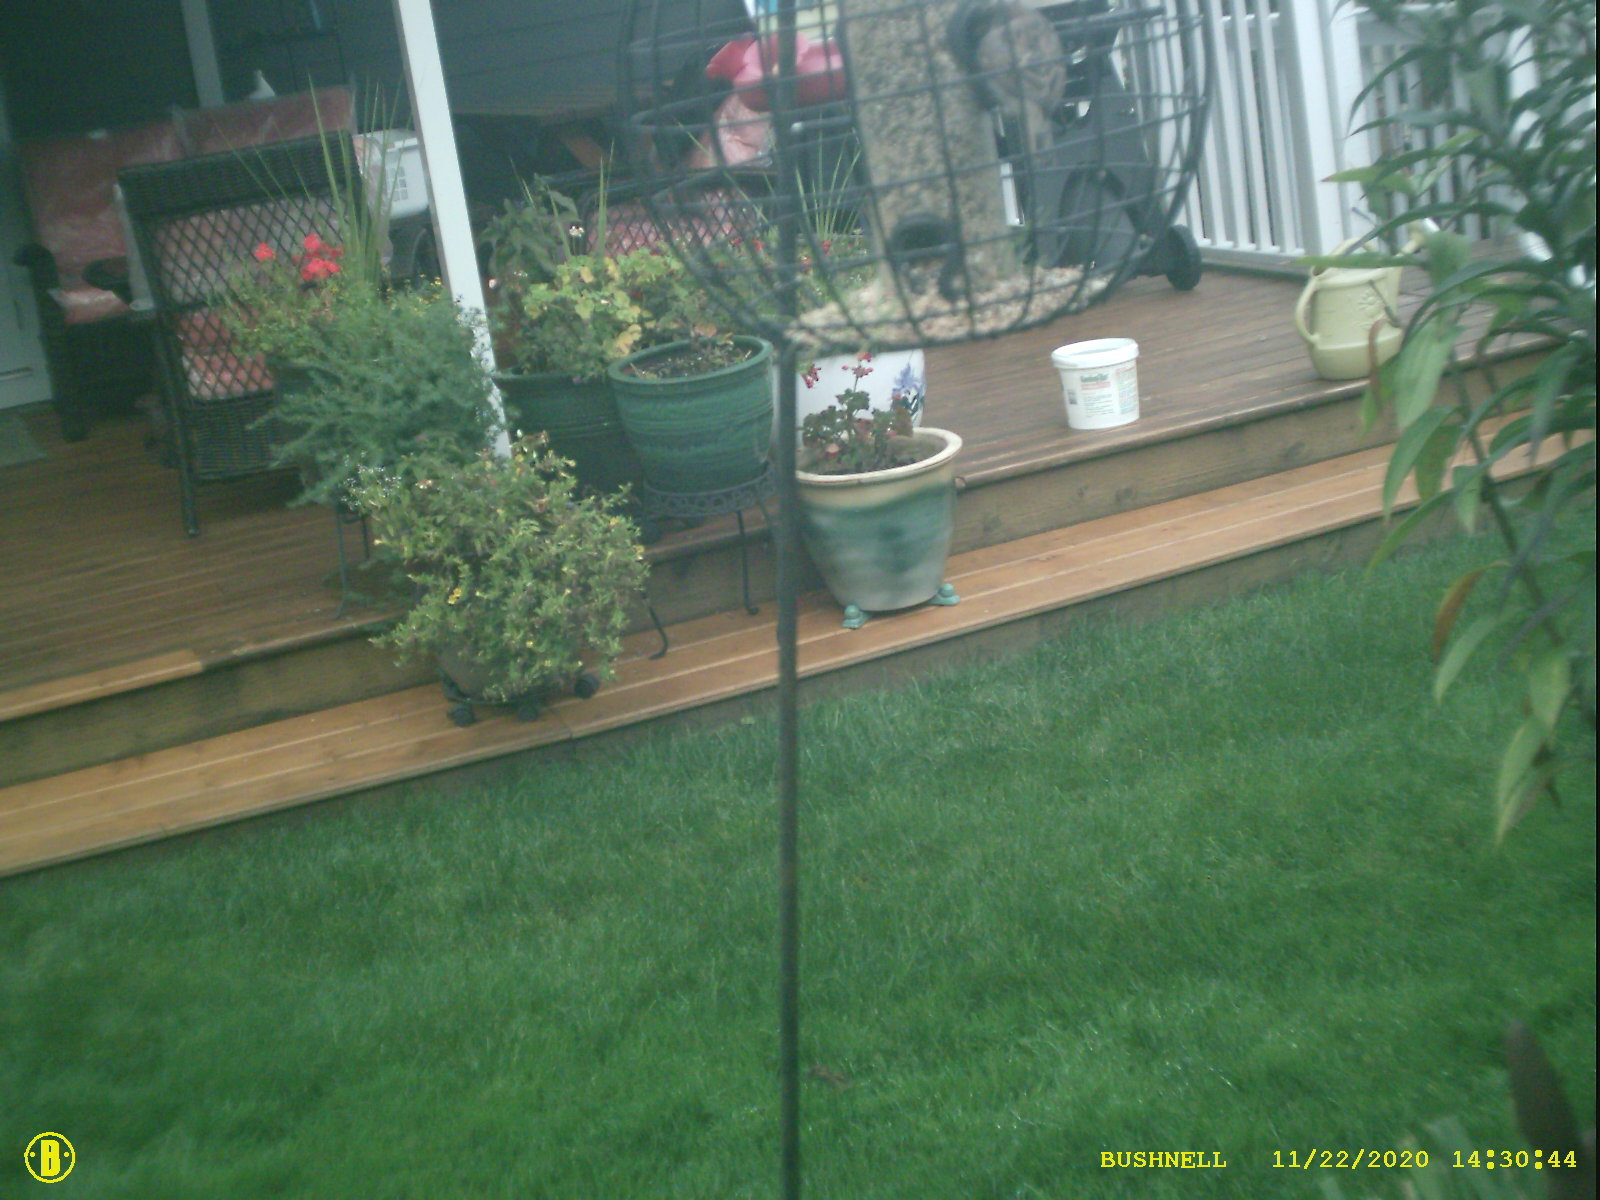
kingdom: Animalia
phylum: Chordata
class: Aves
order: Passeriformes
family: Passeridae
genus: Passer
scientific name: Passer domesticus
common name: House sparrow
